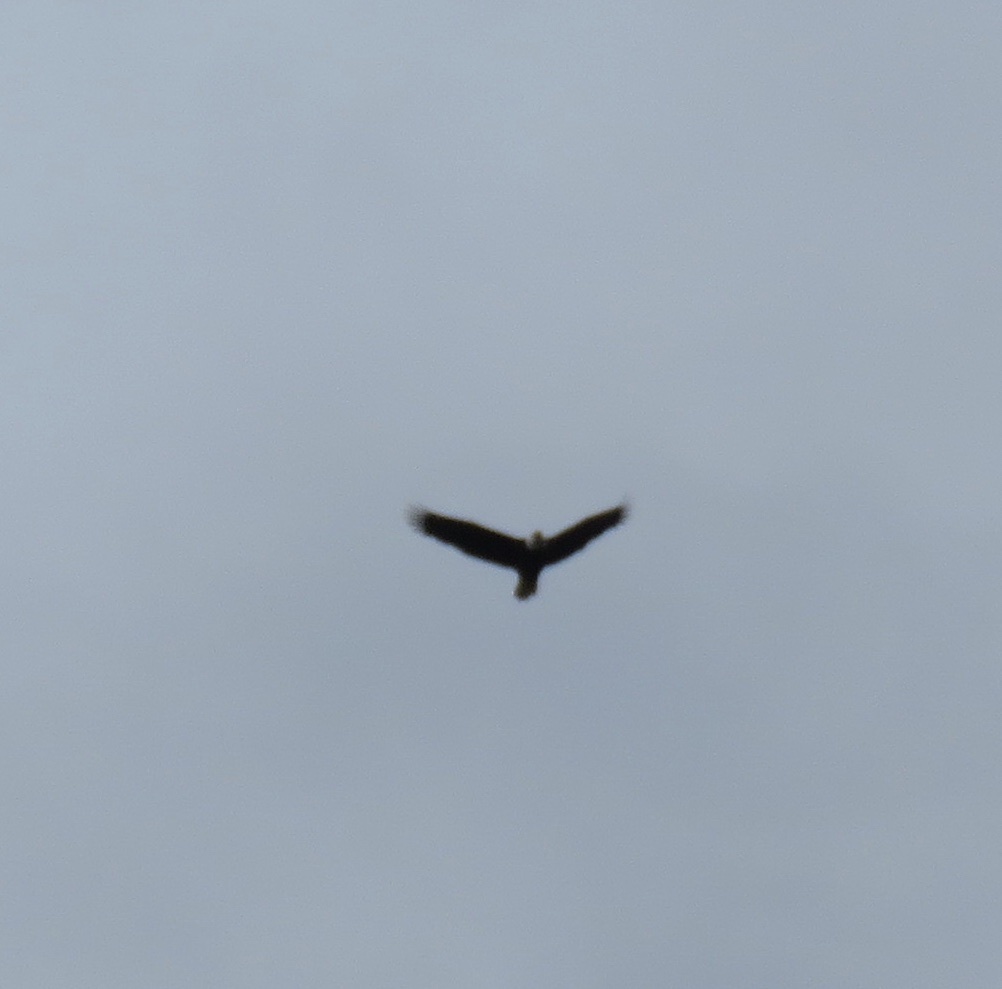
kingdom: Animalia
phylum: Chordata
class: Aves
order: Accipitriformes
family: Accipitridae
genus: Haliaeetus
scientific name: Haliaeetus leucocephalus
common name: Bald eagle
